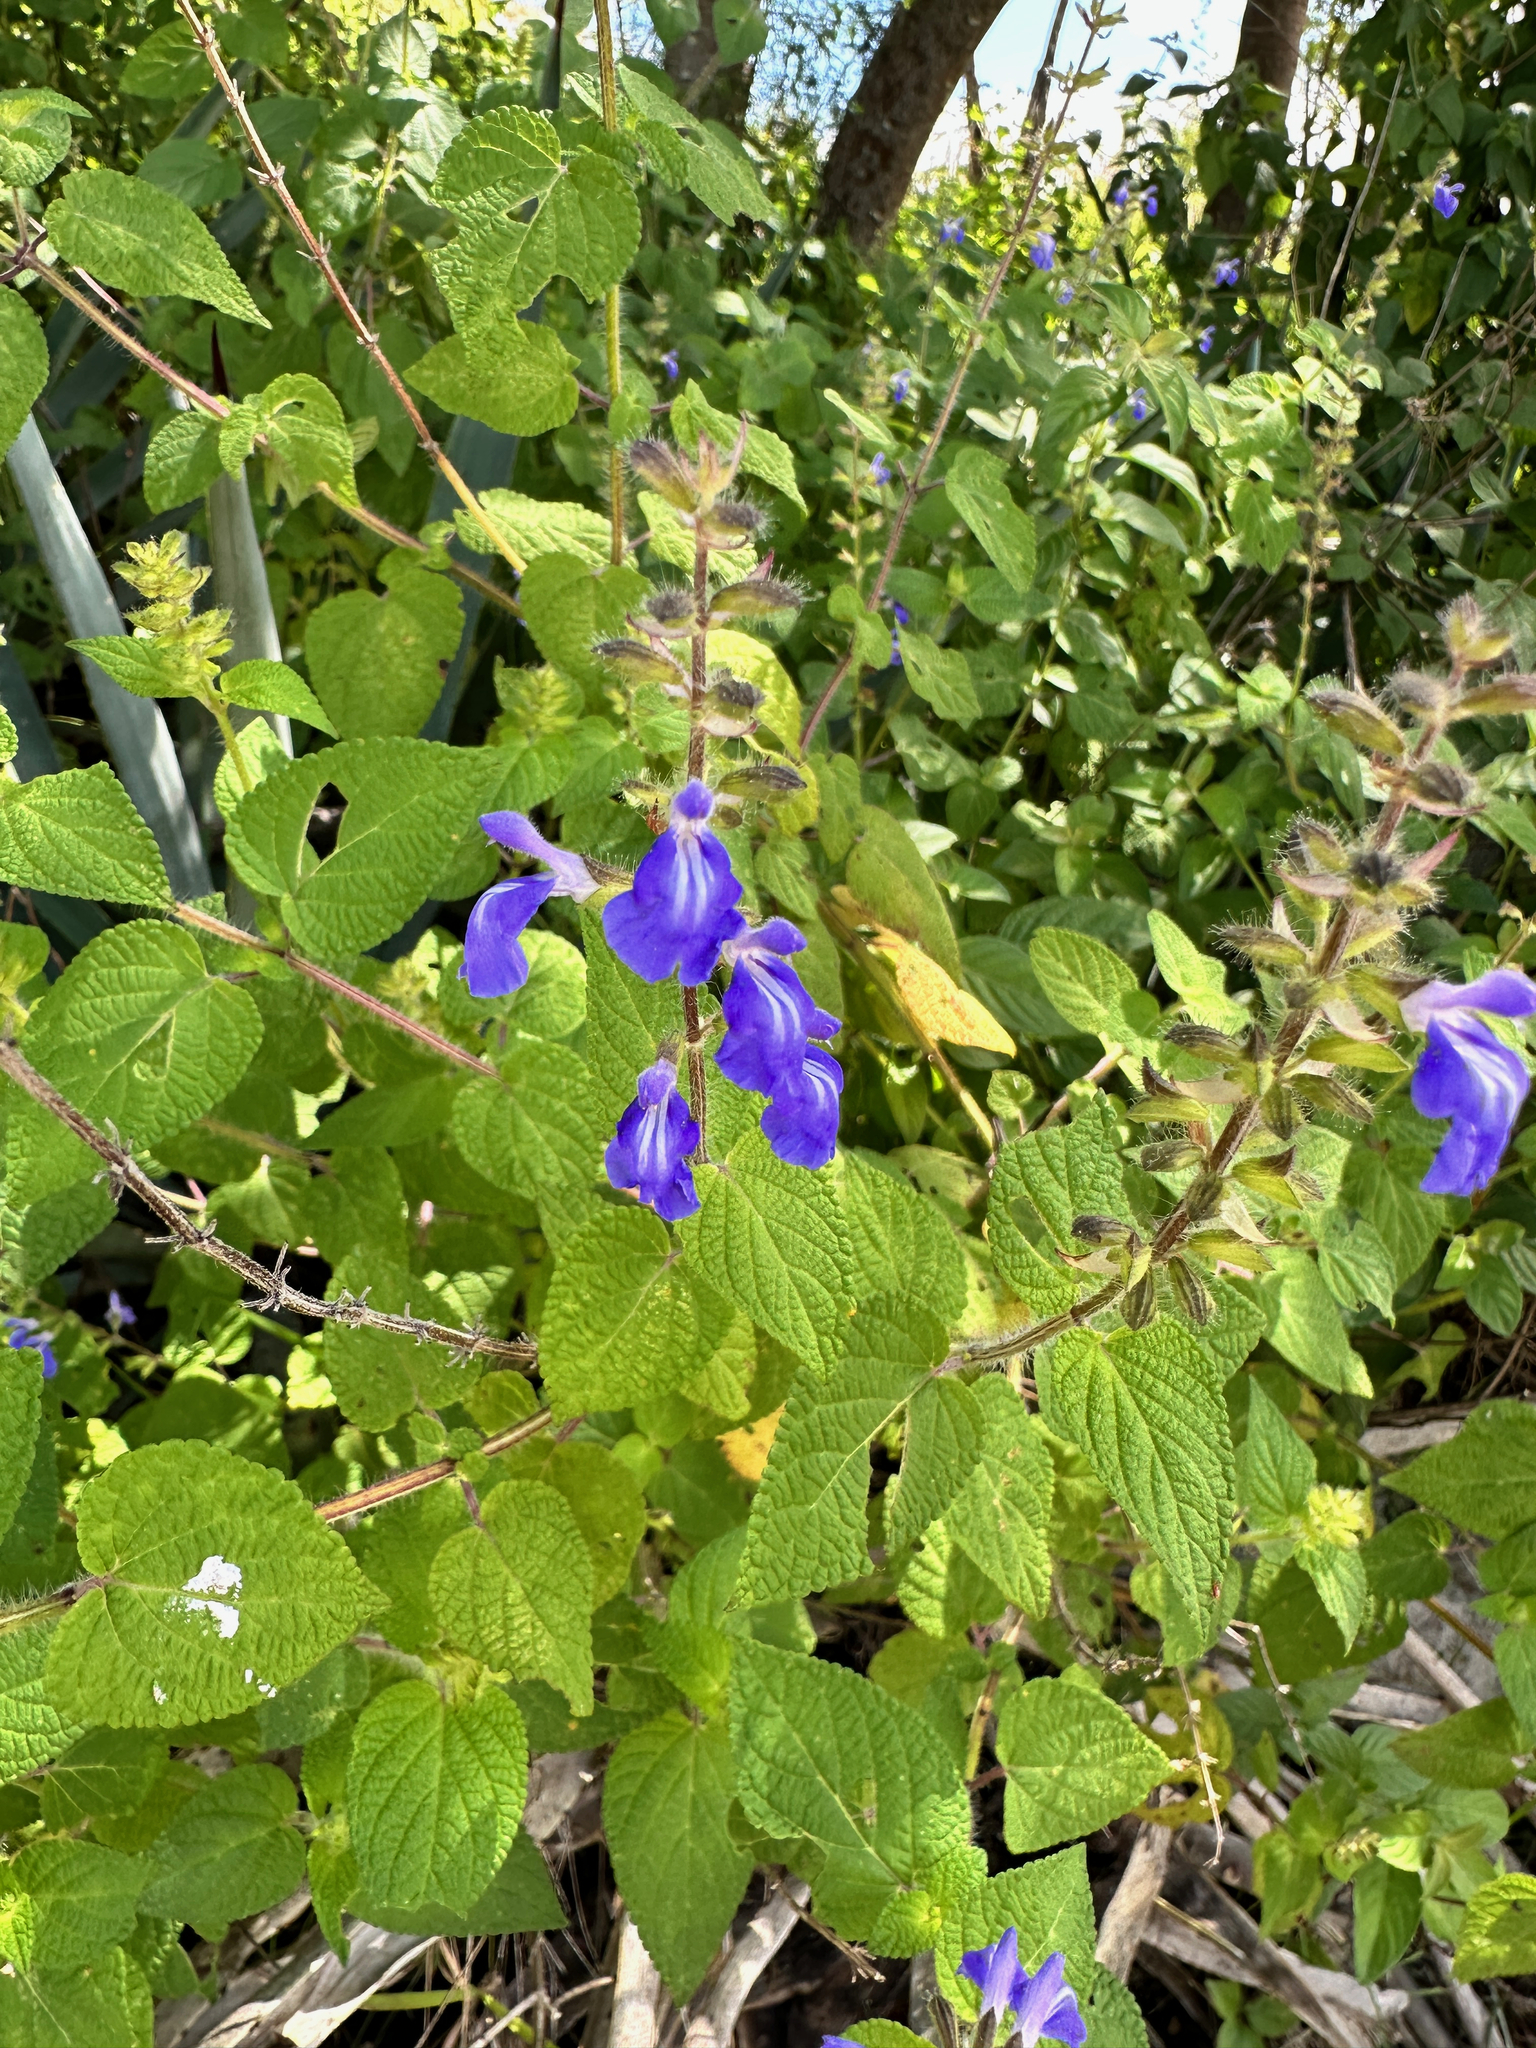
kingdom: Plantae
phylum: Tracheophyta
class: Magnoliopsida
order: Lamiales
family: Lamiaceae
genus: Salvia
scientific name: Salvia circinnata
